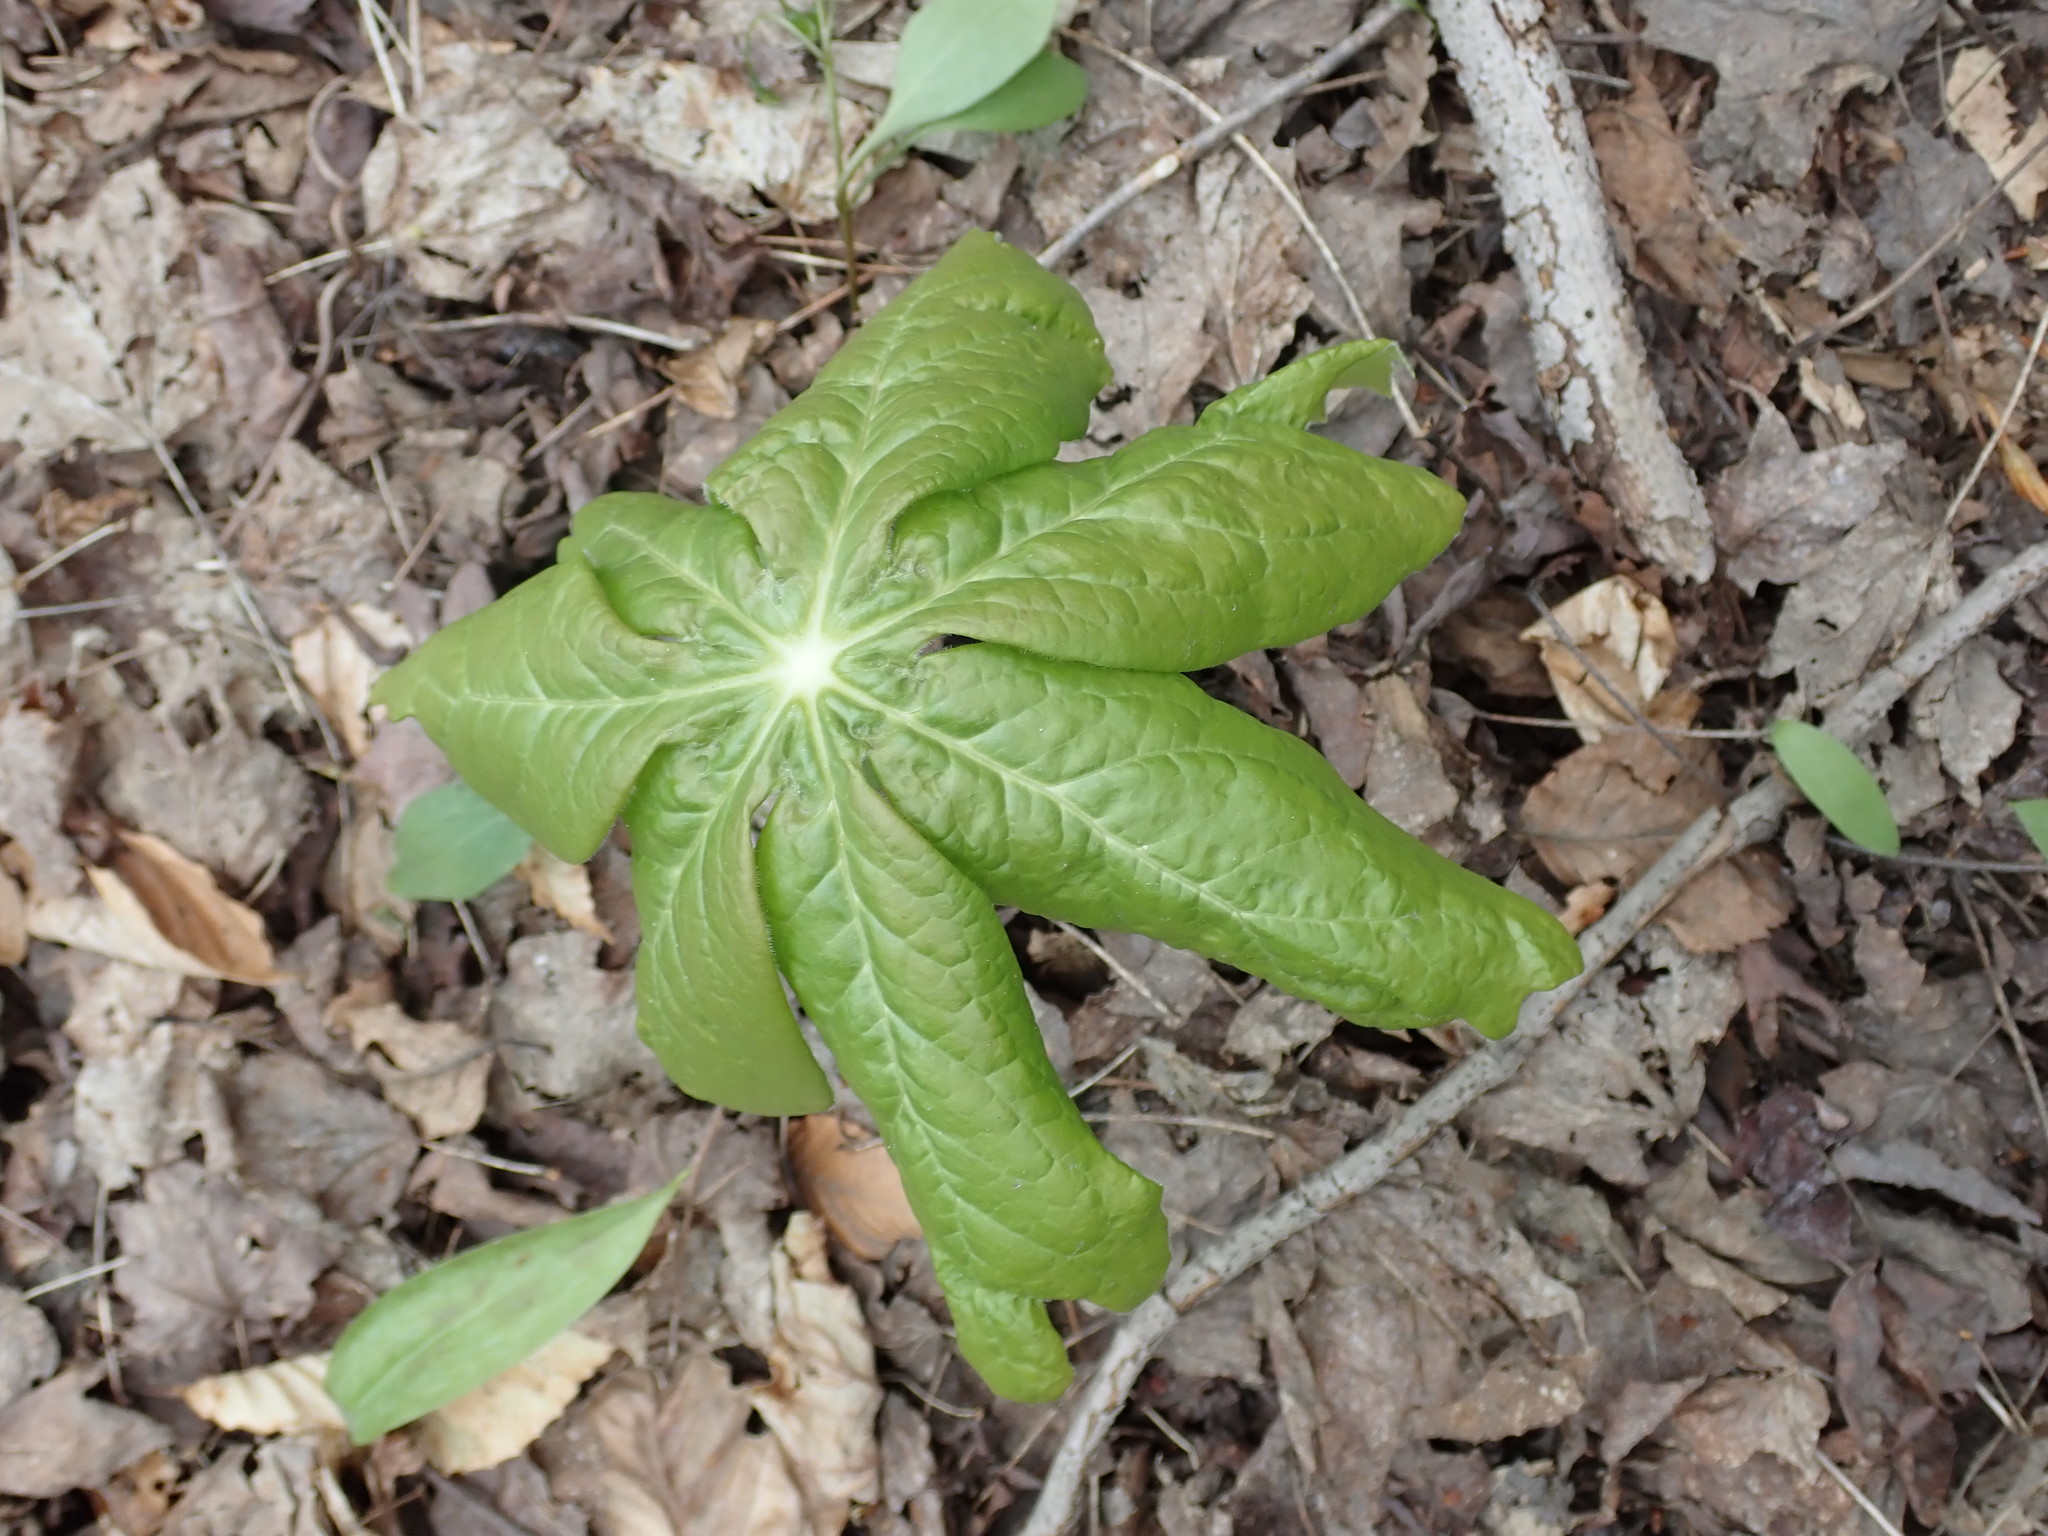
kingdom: Plantae
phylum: Tracheophyta
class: Magnoliopsida
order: Ranunculales
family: Berberidaceae
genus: Podophyllum
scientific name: Podophyllum peltatum
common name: Wild mandrake
